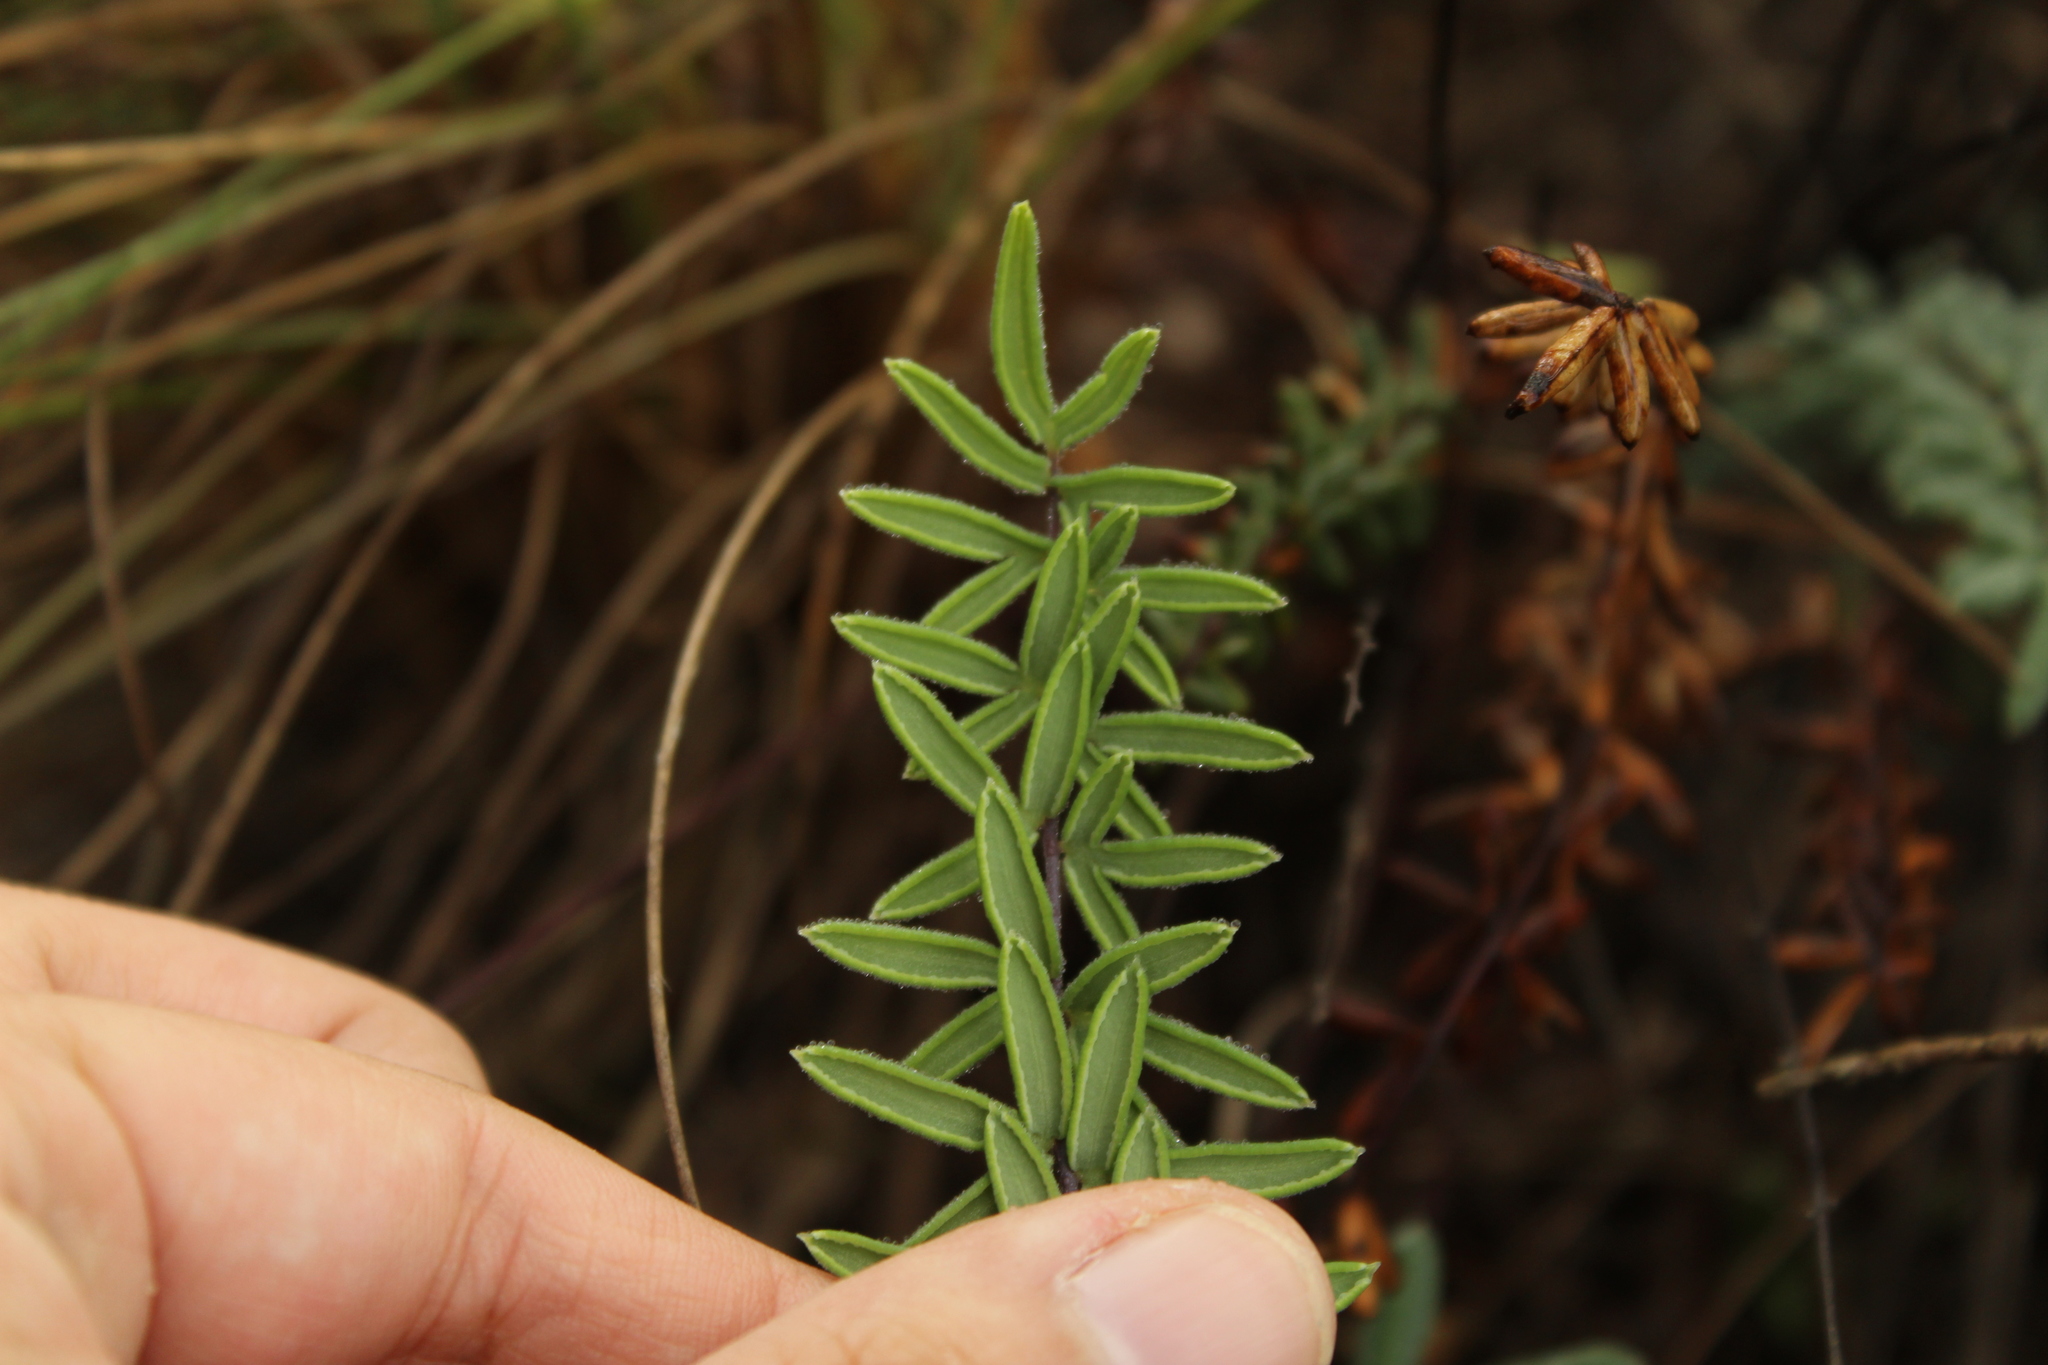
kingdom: Plantae
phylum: Tracheophyta
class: Polypodiopsida
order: Polypodiales
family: Pteridaceae
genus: Pellaea
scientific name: Pellaea ternifolia
